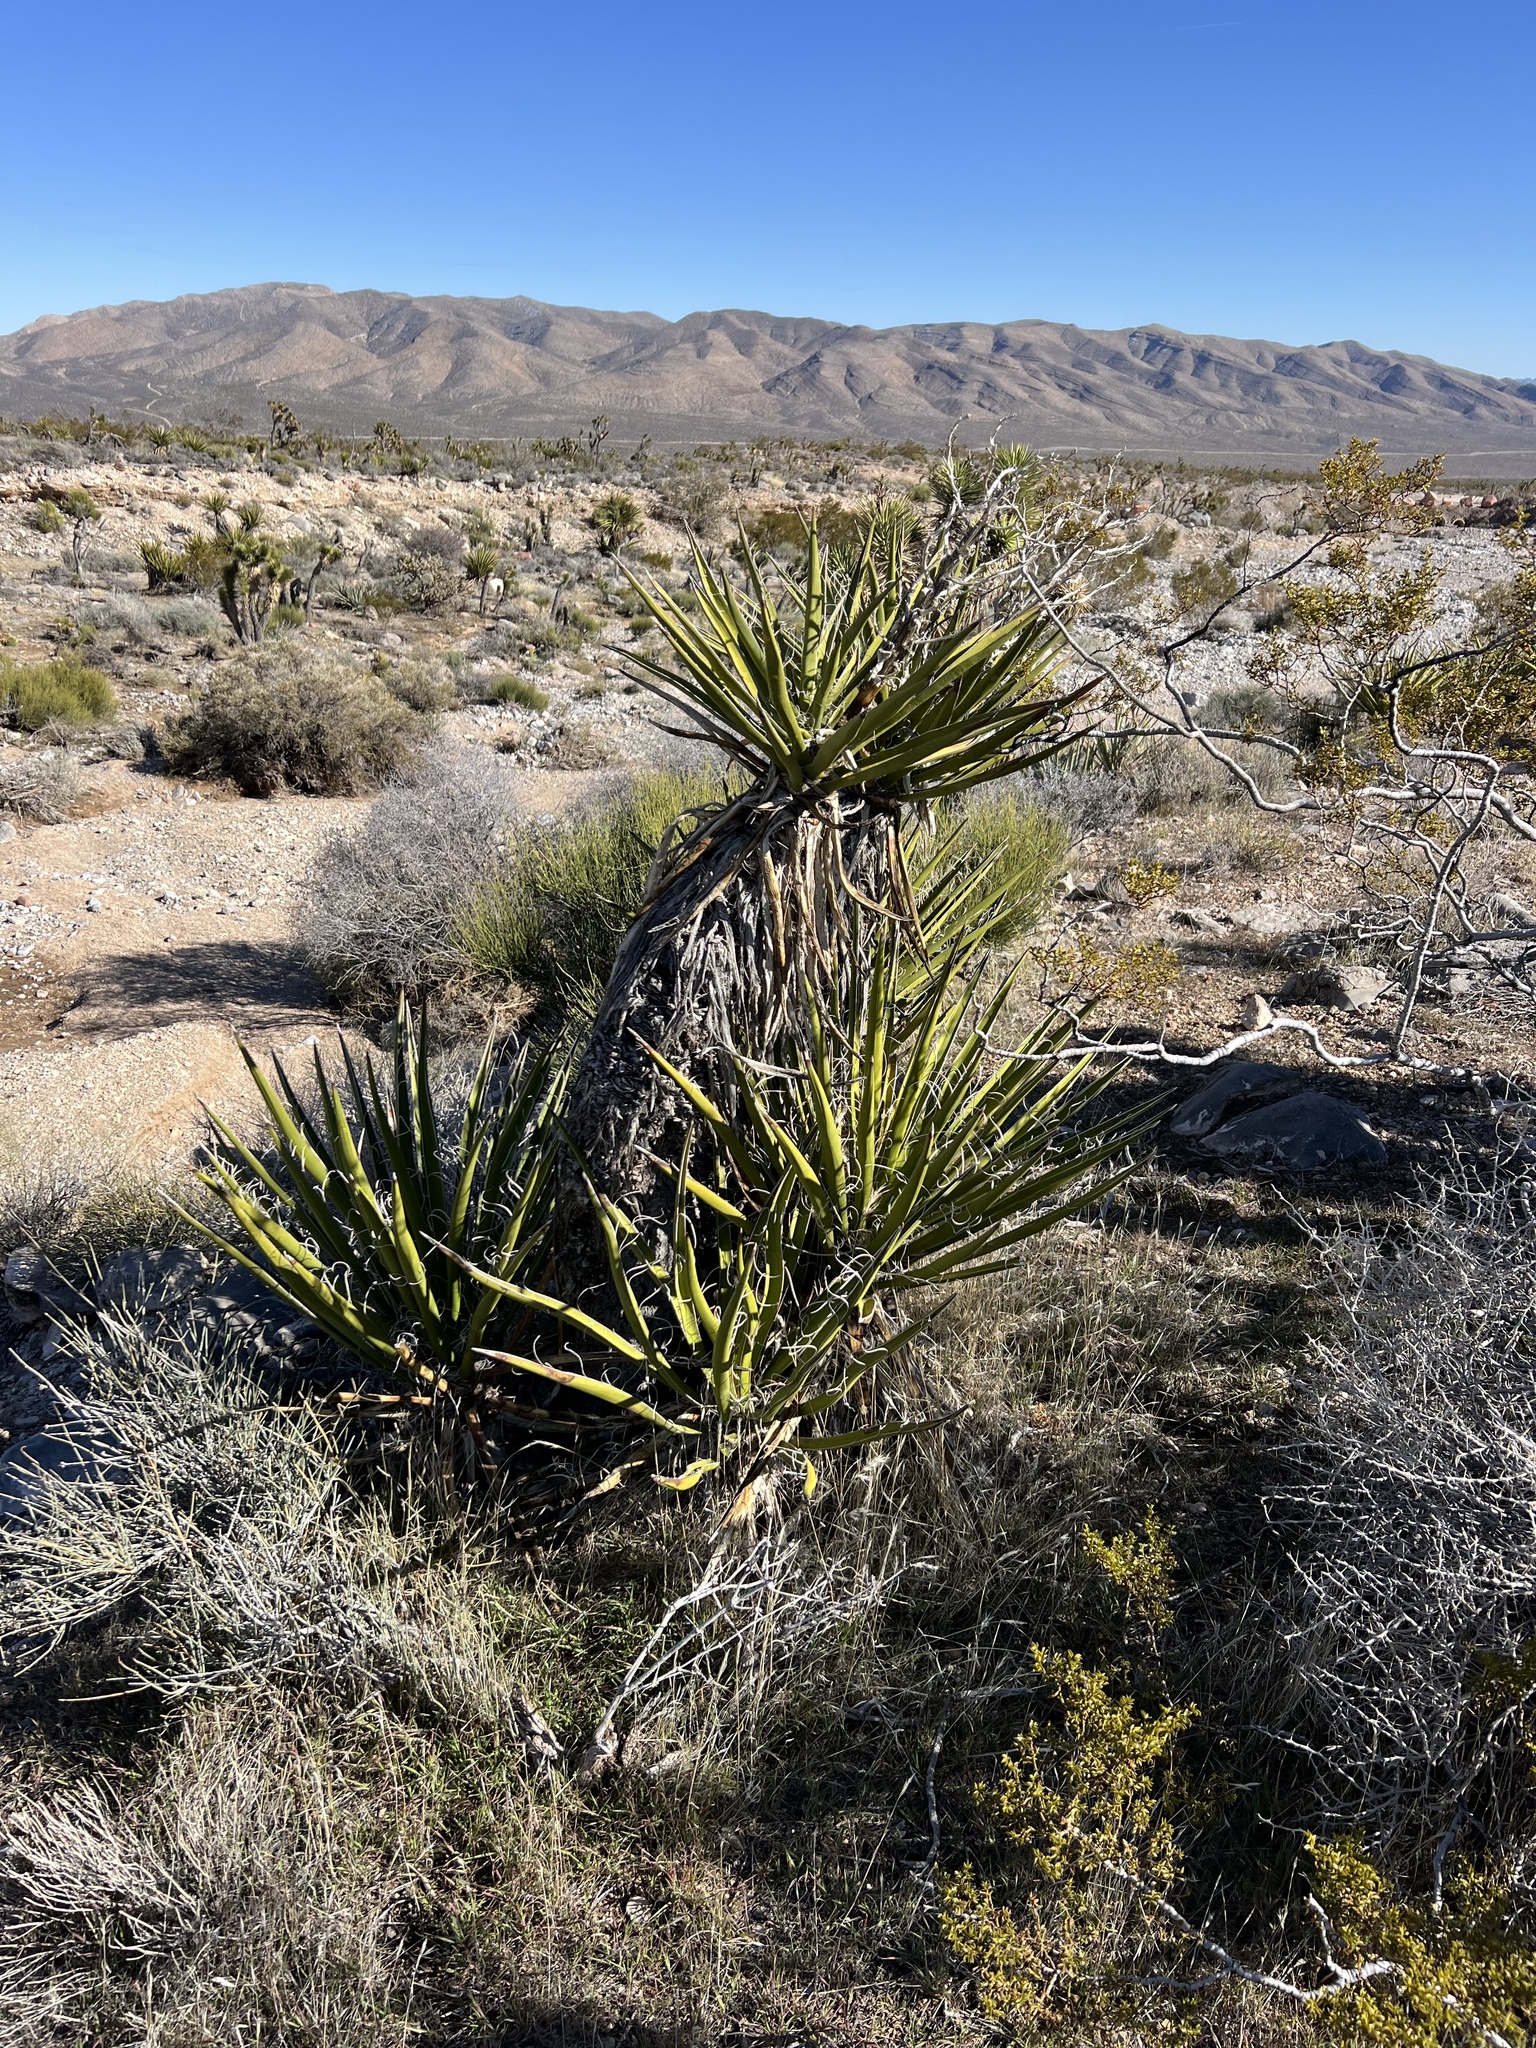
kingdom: Plantae
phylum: Tracheophyta
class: Liliopsida
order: Asparagales
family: Asparagaceae
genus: Yucca
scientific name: Yucca schidigera
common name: Mojave yucca
